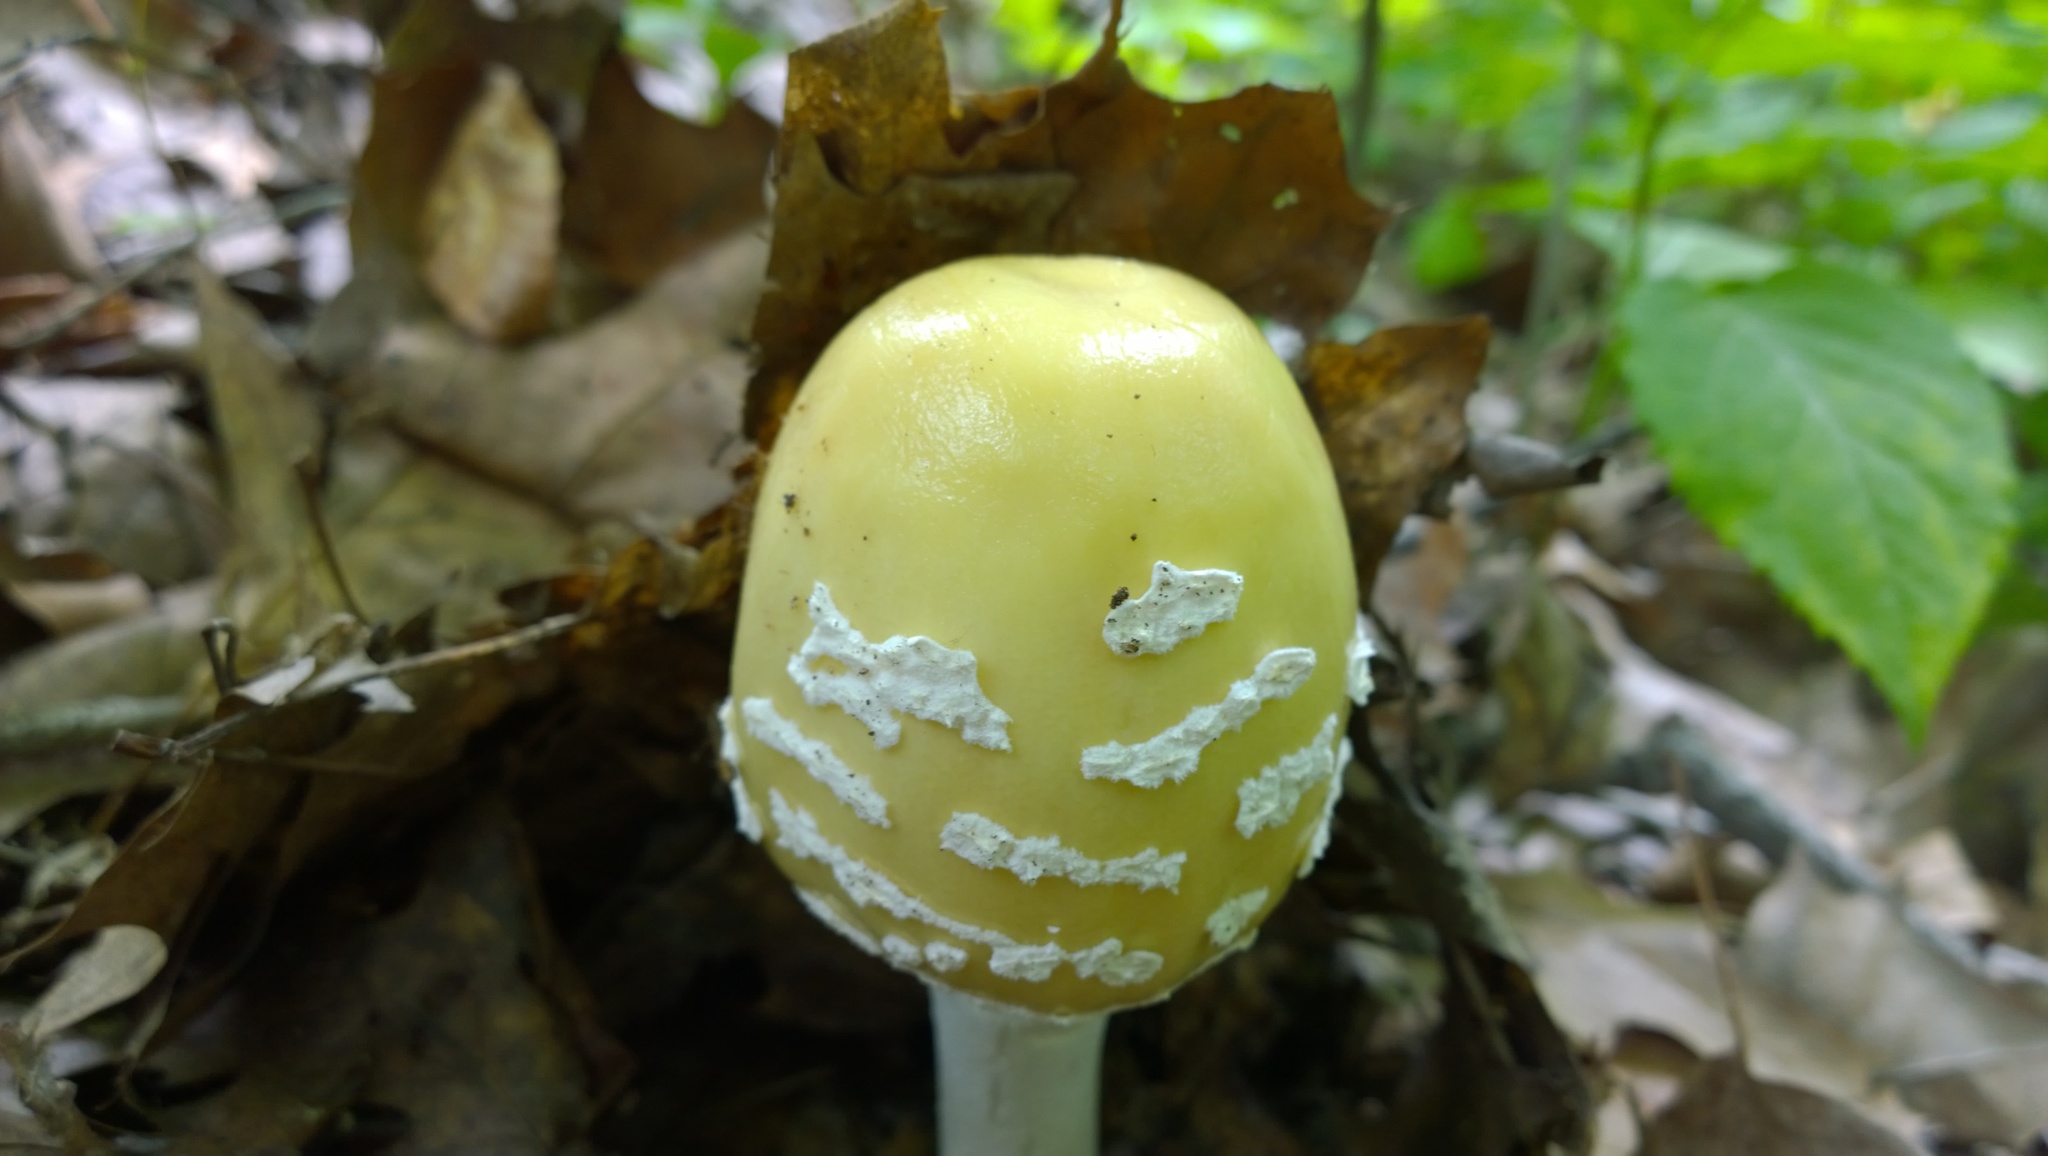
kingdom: Fungi
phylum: Basidiomycota
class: Agaricomycetes
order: Agaricales
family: Amanitaceae
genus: Amanita
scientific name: Amanita velatipes
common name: Great funnel-veil amanita
